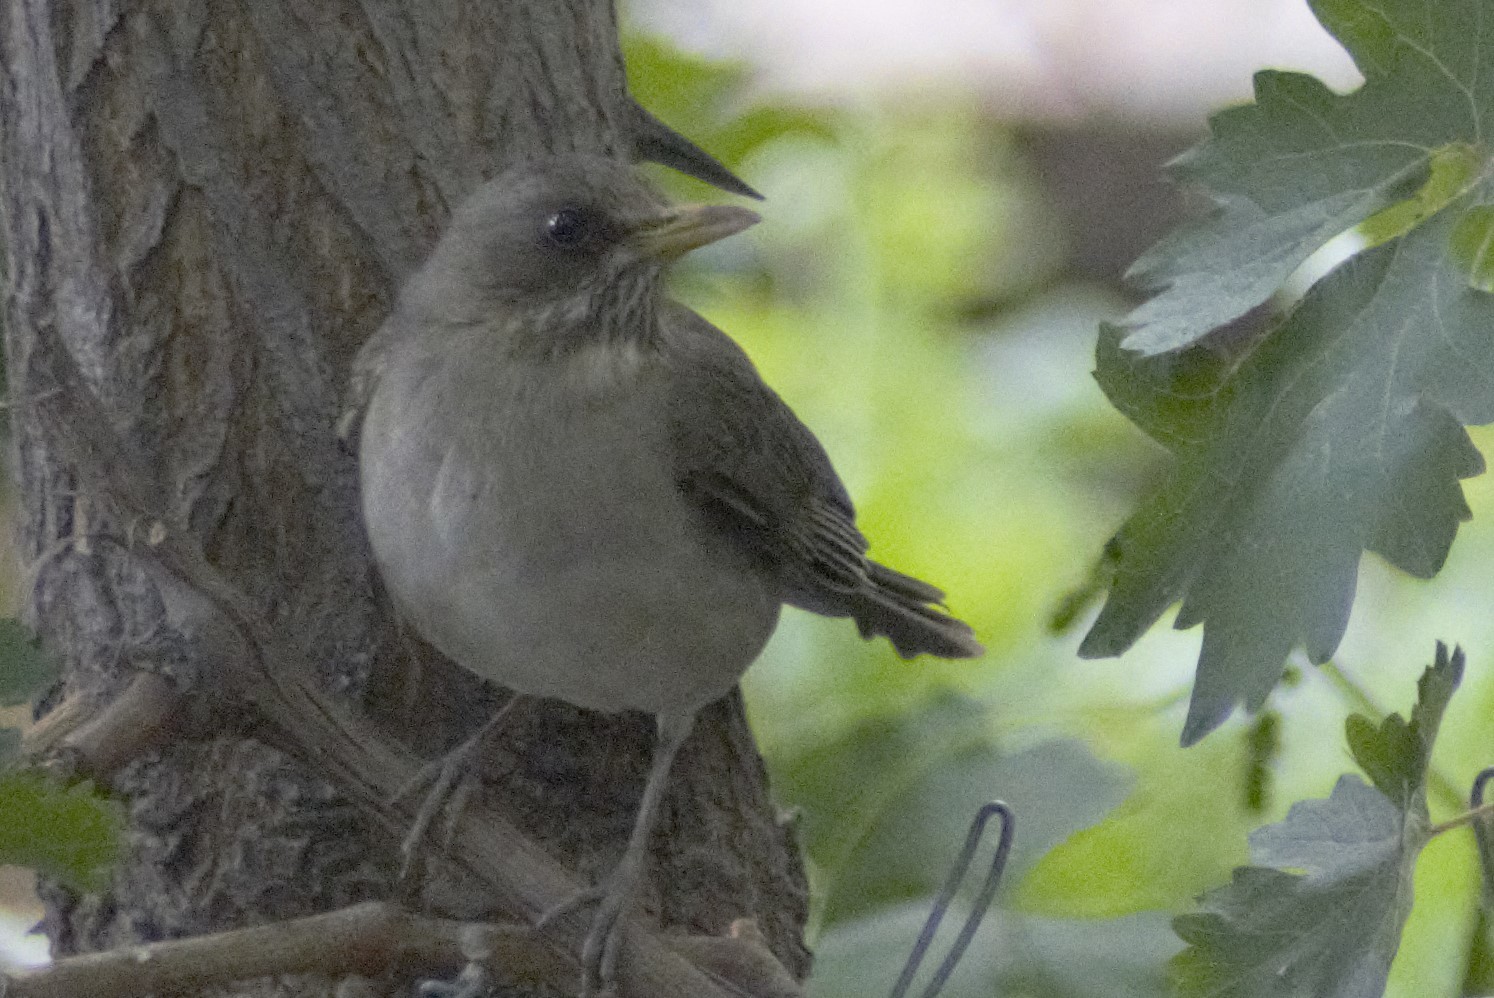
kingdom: Animalia
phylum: Chordata
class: Aves
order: Passeriformes
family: Turdidae
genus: Turdus
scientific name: Turdus amaurochalinus
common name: Creamy-bellied thrush
